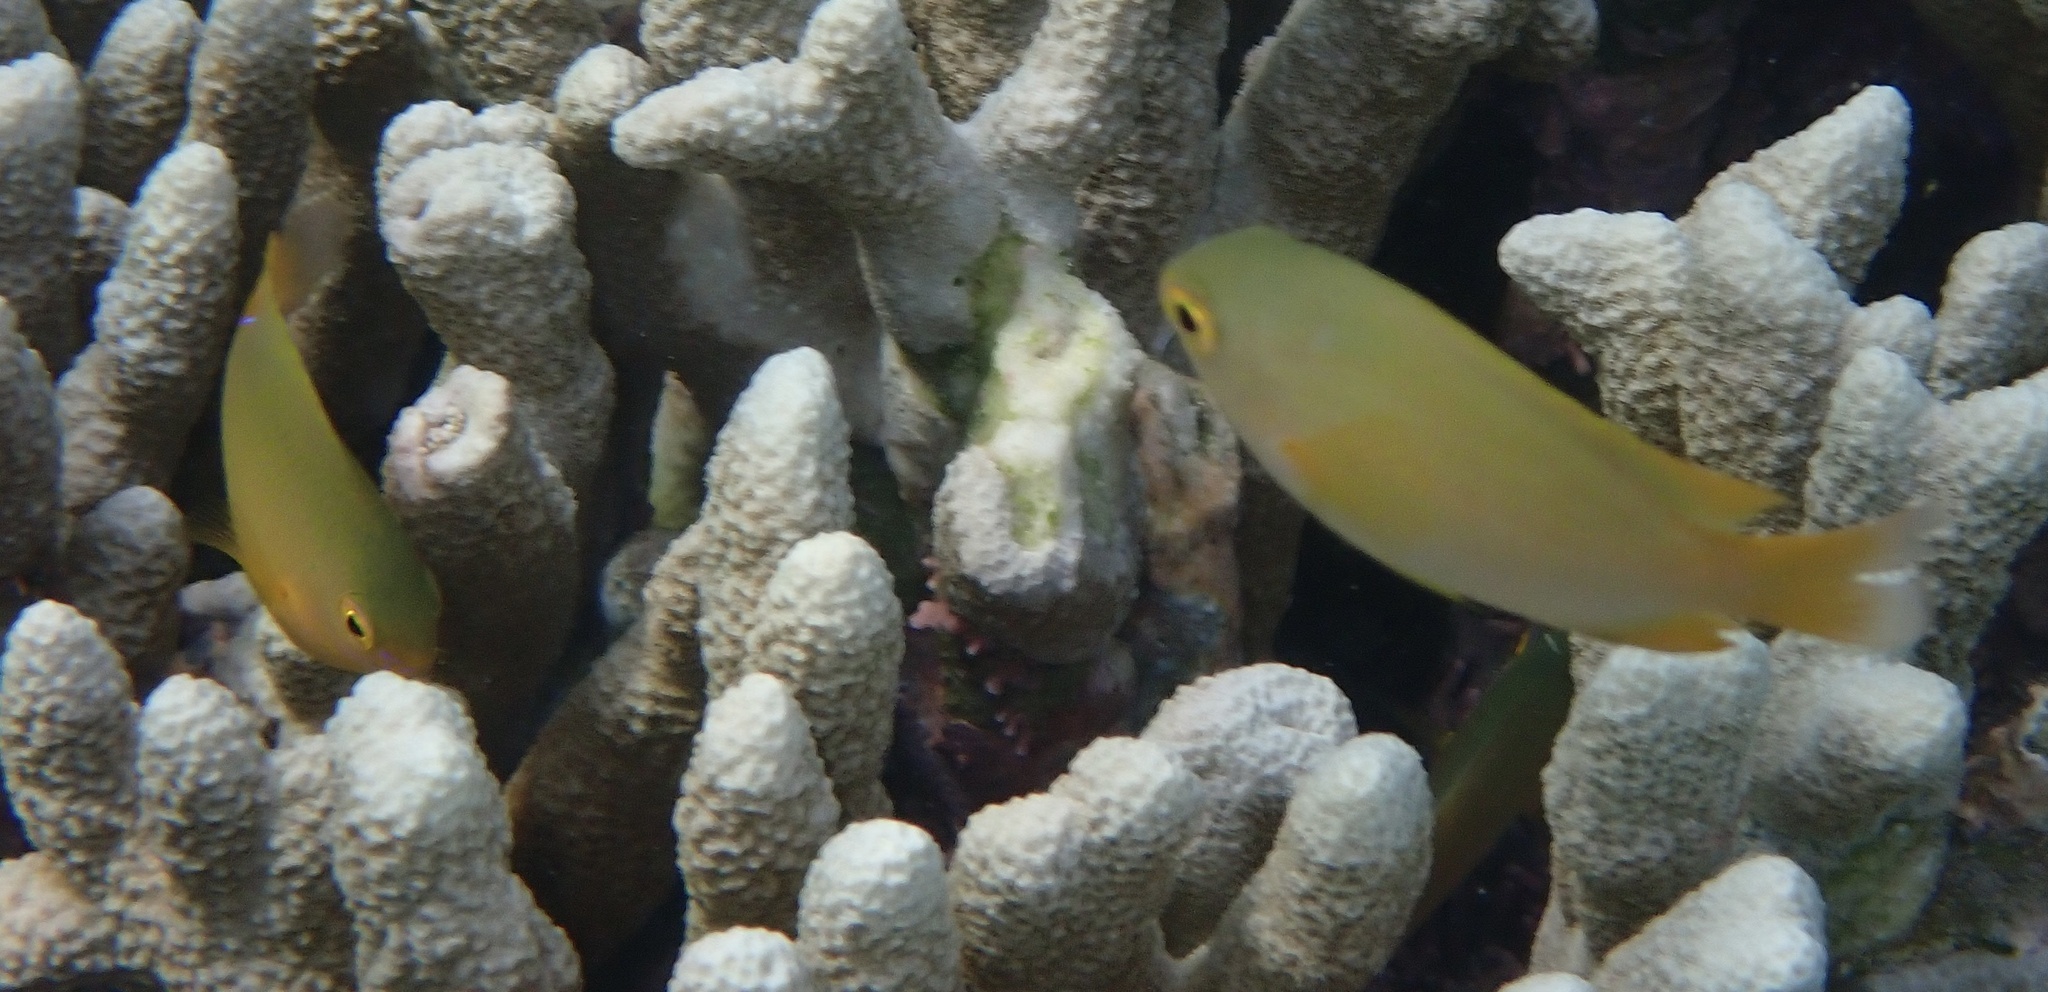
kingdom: Animalia
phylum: Chordata
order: Perciformes
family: Pomacentridae
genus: Pomacentrus
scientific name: Pomacentrus amboinensis
